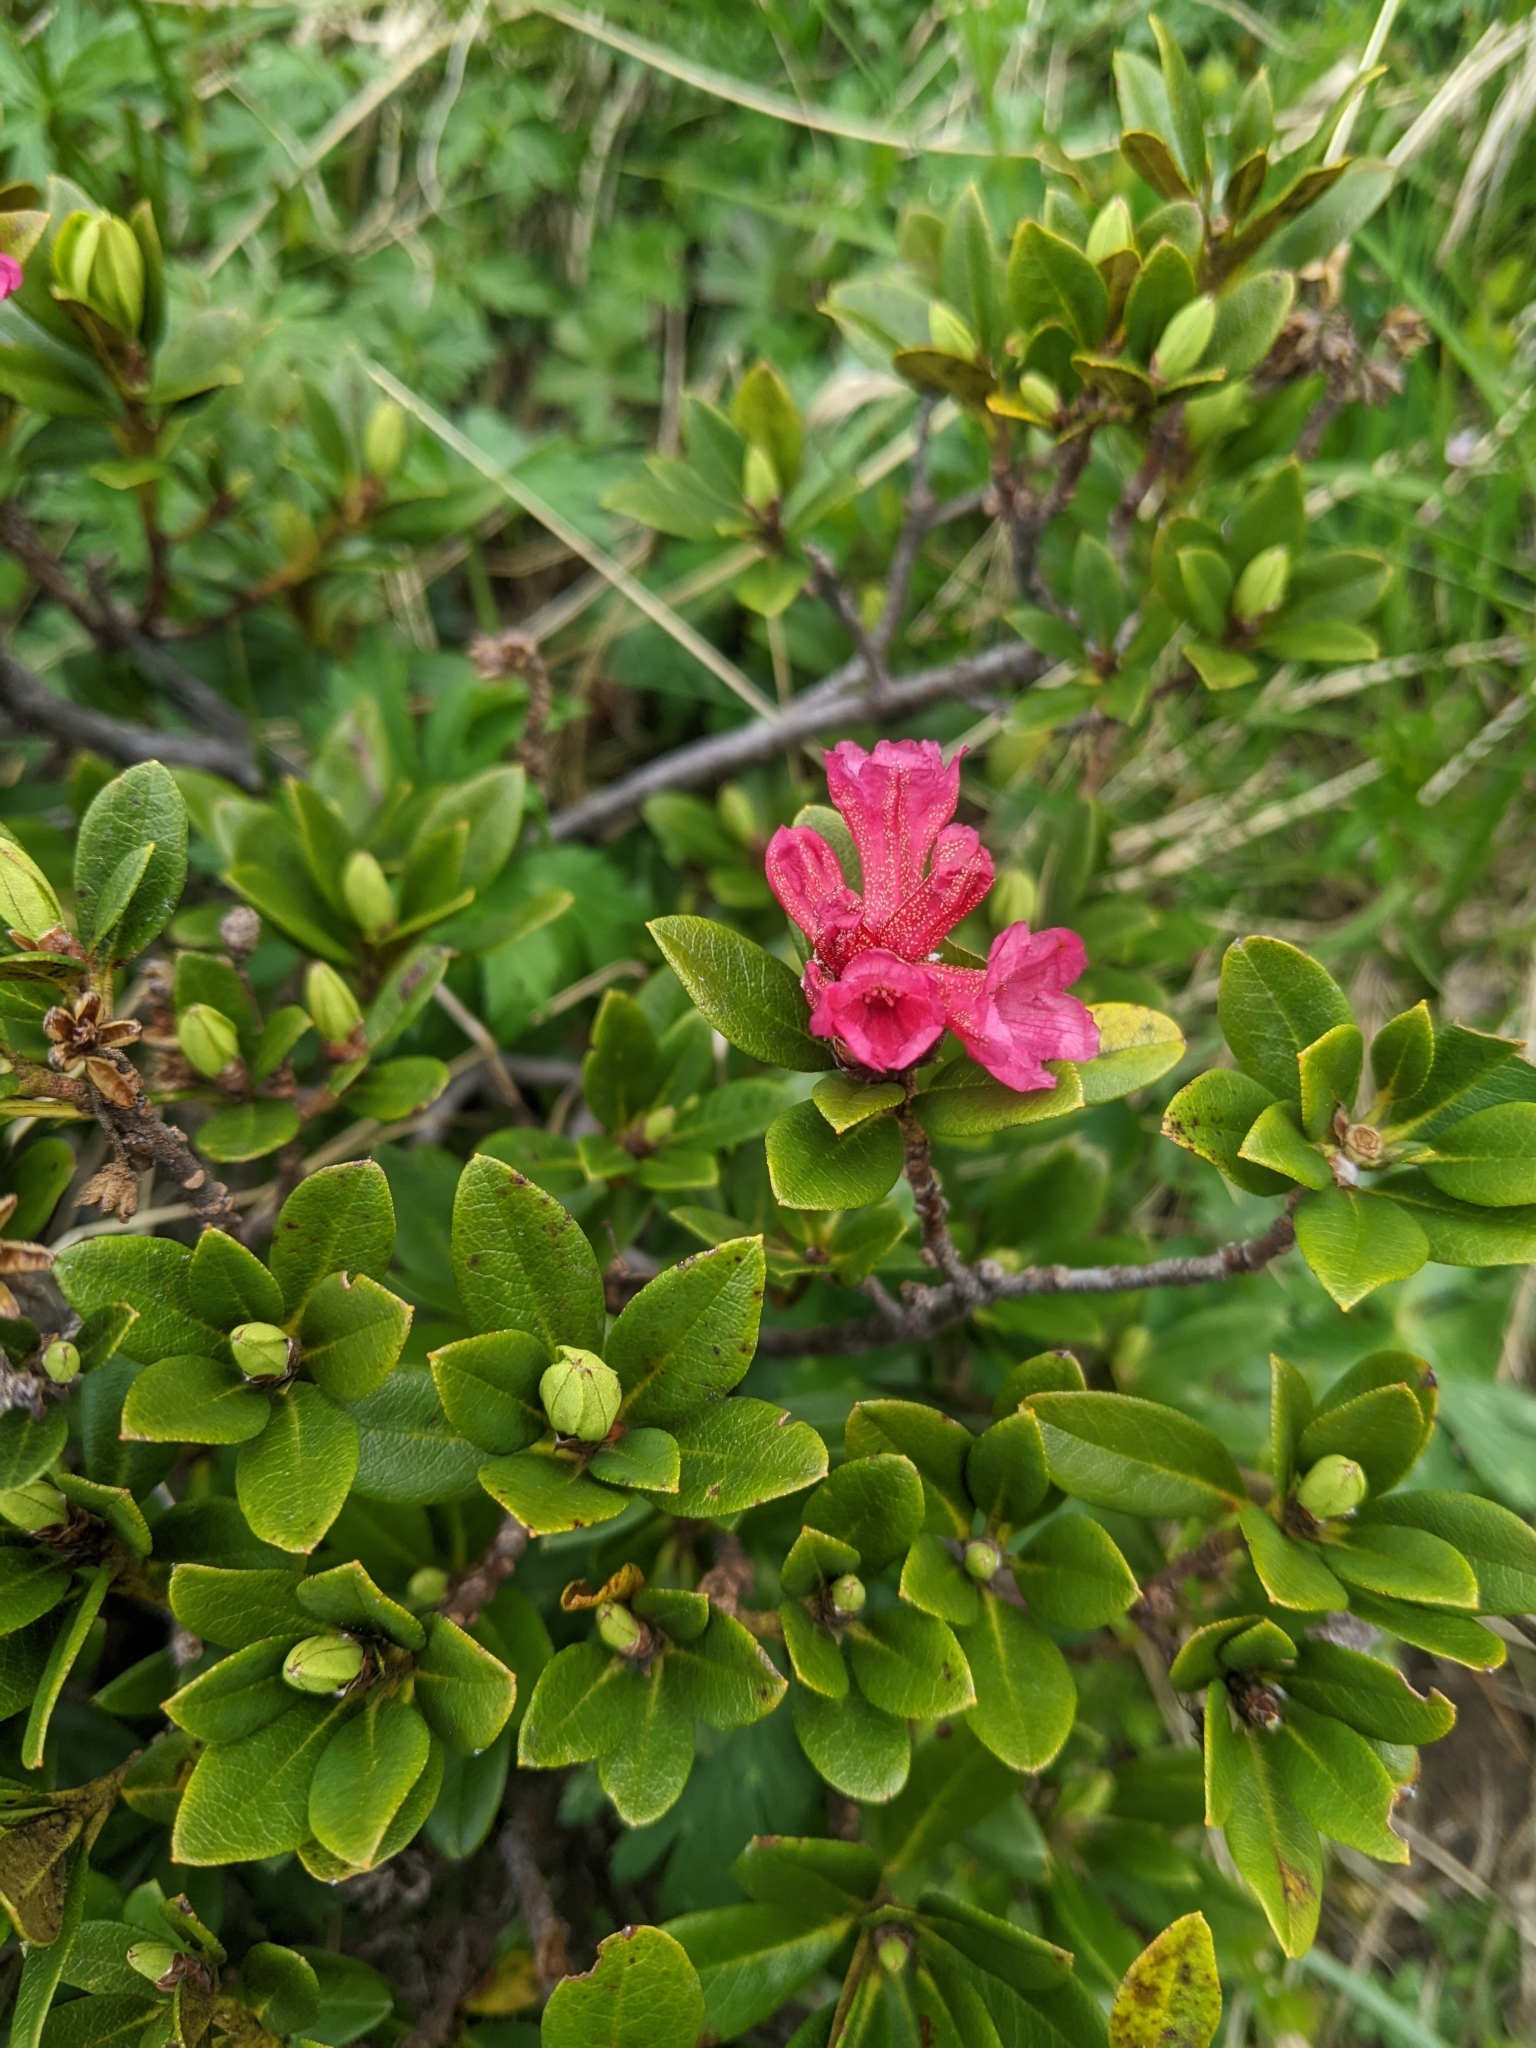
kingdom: Plantae
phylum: Tracheophyta
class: Magnoliopsida
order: Ericales
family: Ericaceae
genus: Rhododendron
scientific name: Rhododendron ferrugineum
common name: Alpenrose
